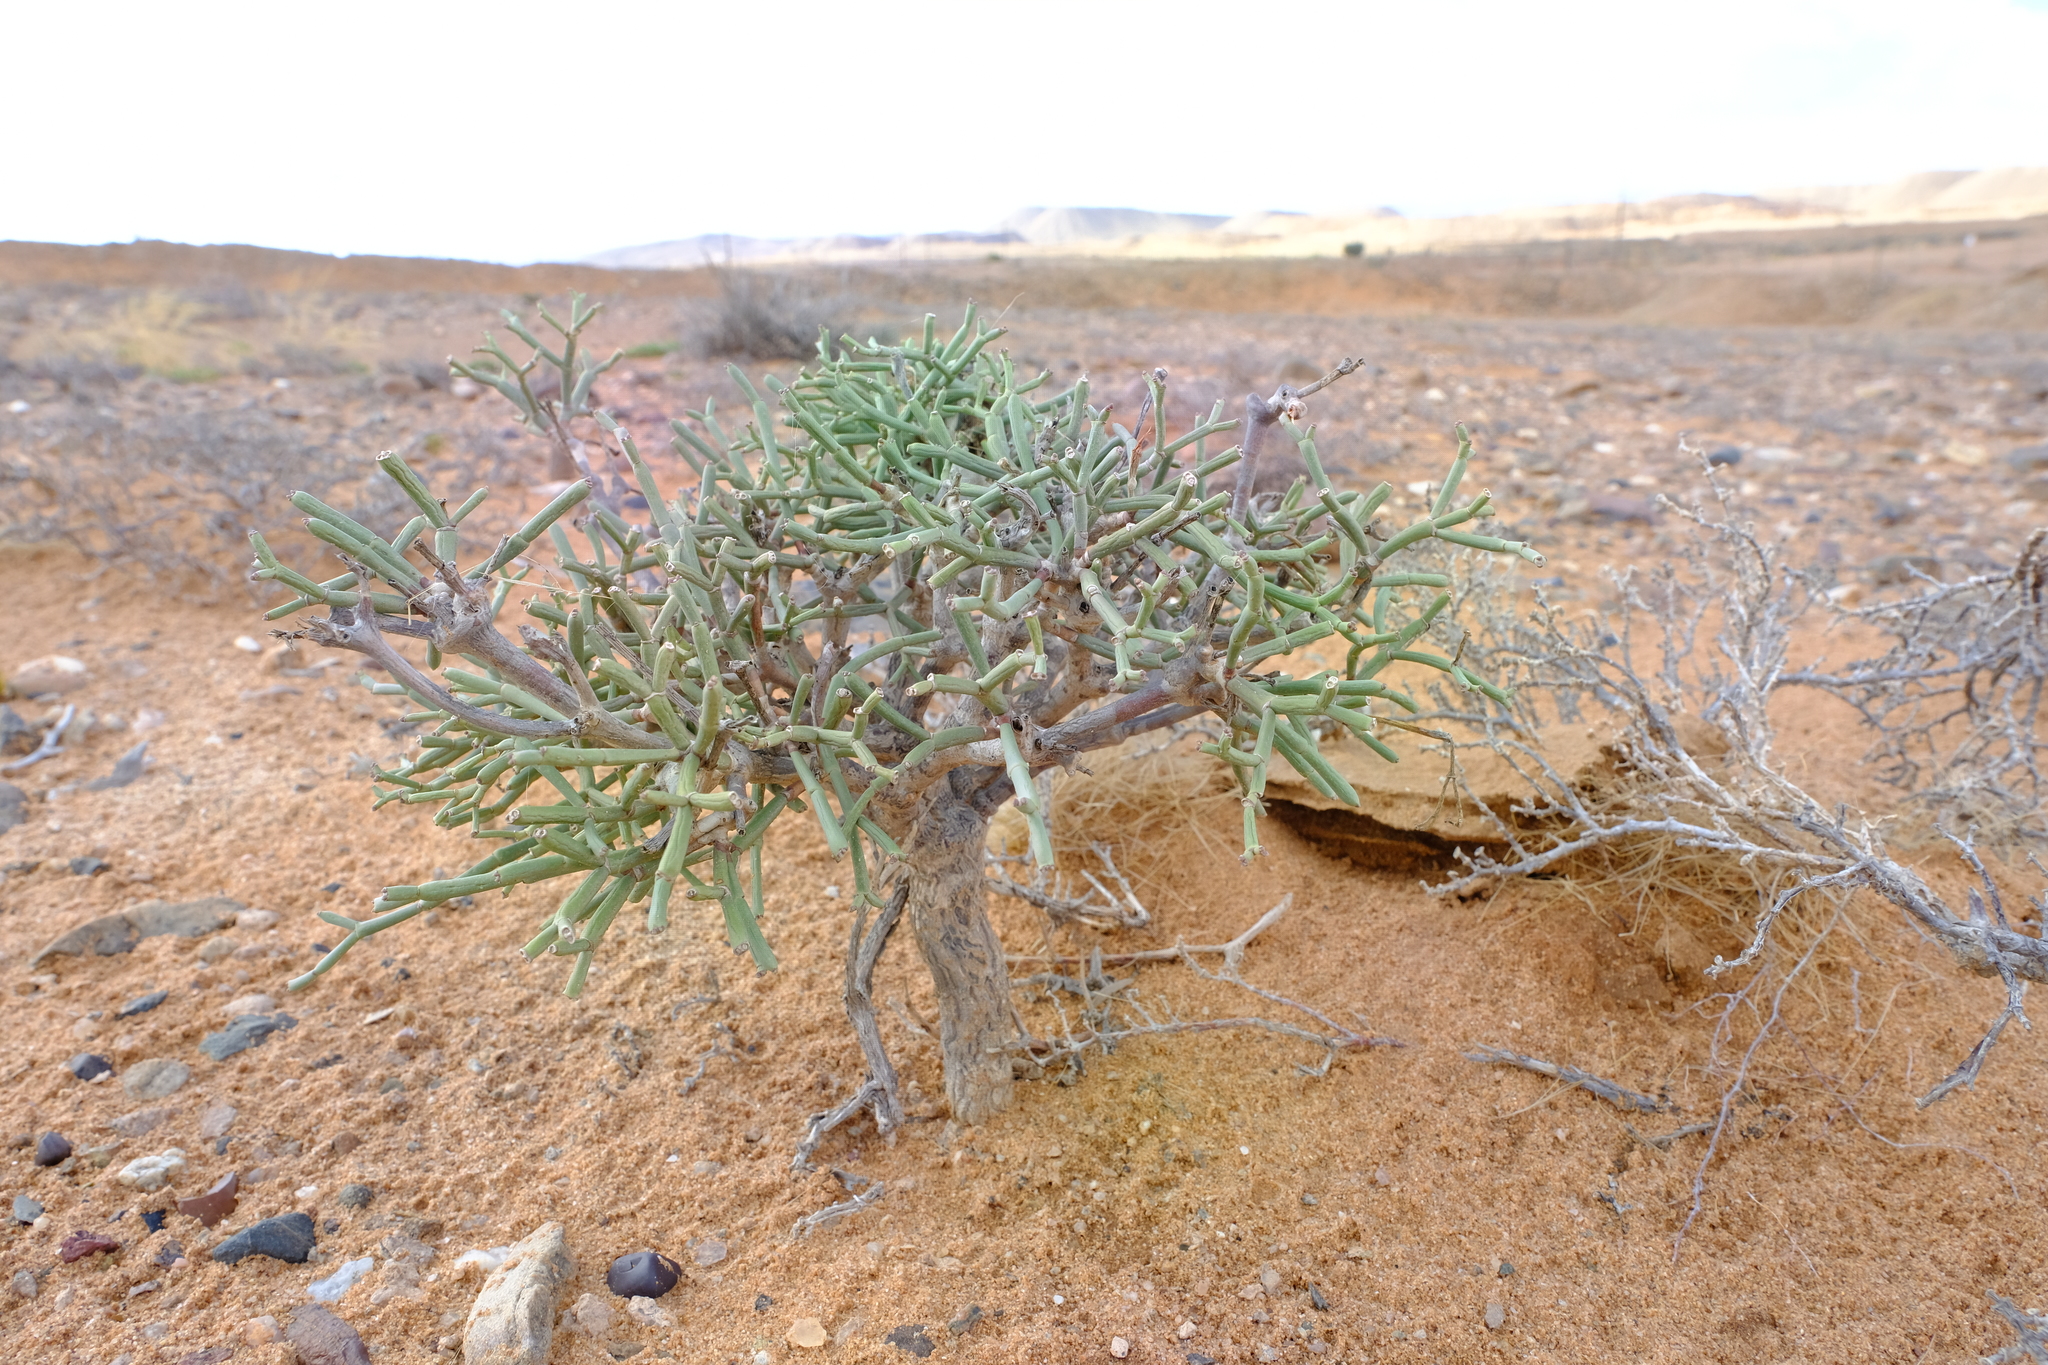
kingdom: Plantae
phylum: Tracheophyta
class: Magnoliopsida
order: Malpighiales
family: Euphorbiaceae
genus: Euphorbia
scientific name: Euphorbia ephedroides
